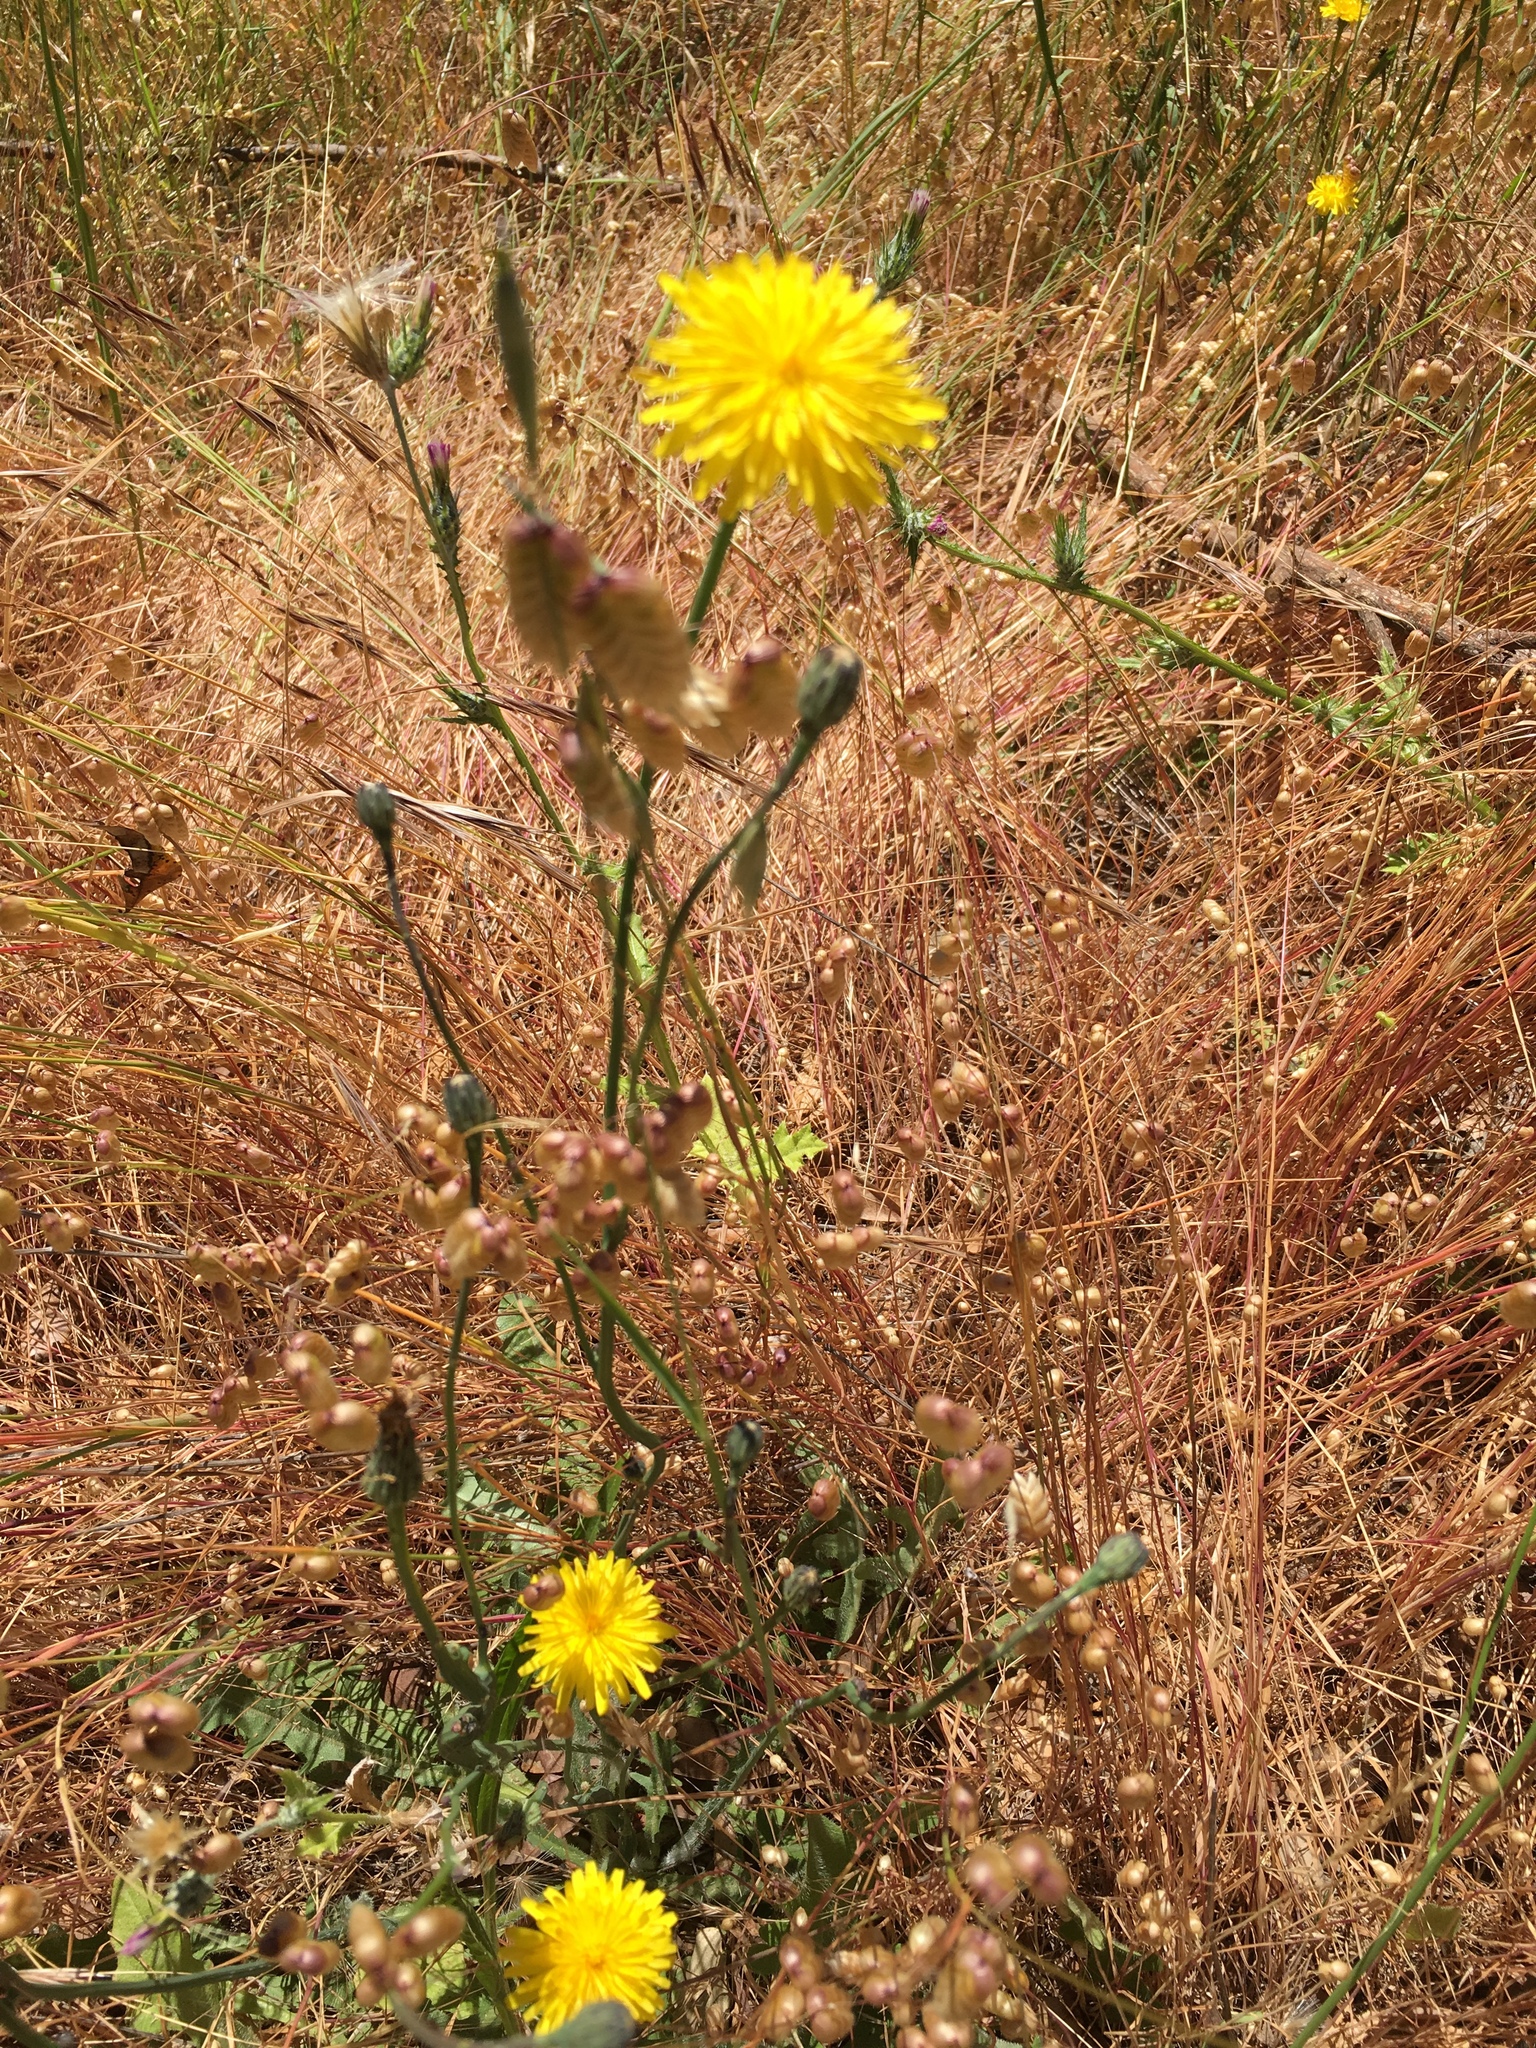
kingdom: Plantae
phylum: Tracheophyta
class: Magnoliopsida
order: Asterales
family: Asteraceae
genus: Hypochaeris
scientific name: Hypochaeris radicata
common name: Flatweed
